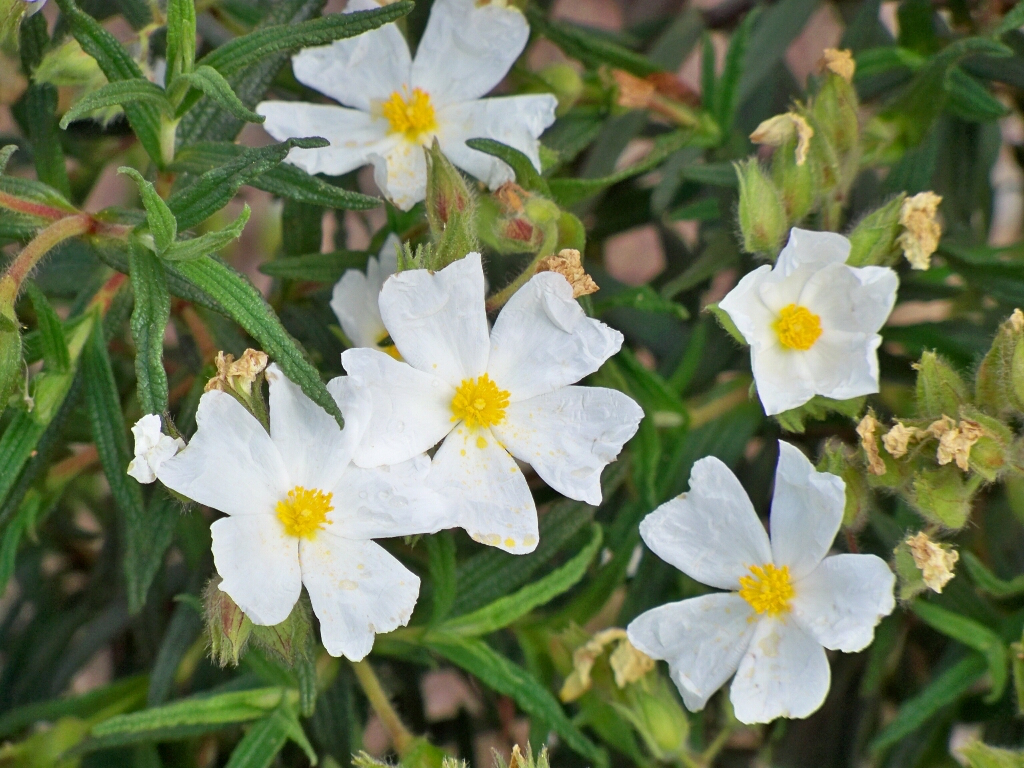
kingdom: Plantae
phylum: Tracheophyta
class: Magnoliopsida
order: Malvales
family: Cistaceae
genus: Cistus
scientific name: Cistus monspeliensis
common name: Montpelier cistus
